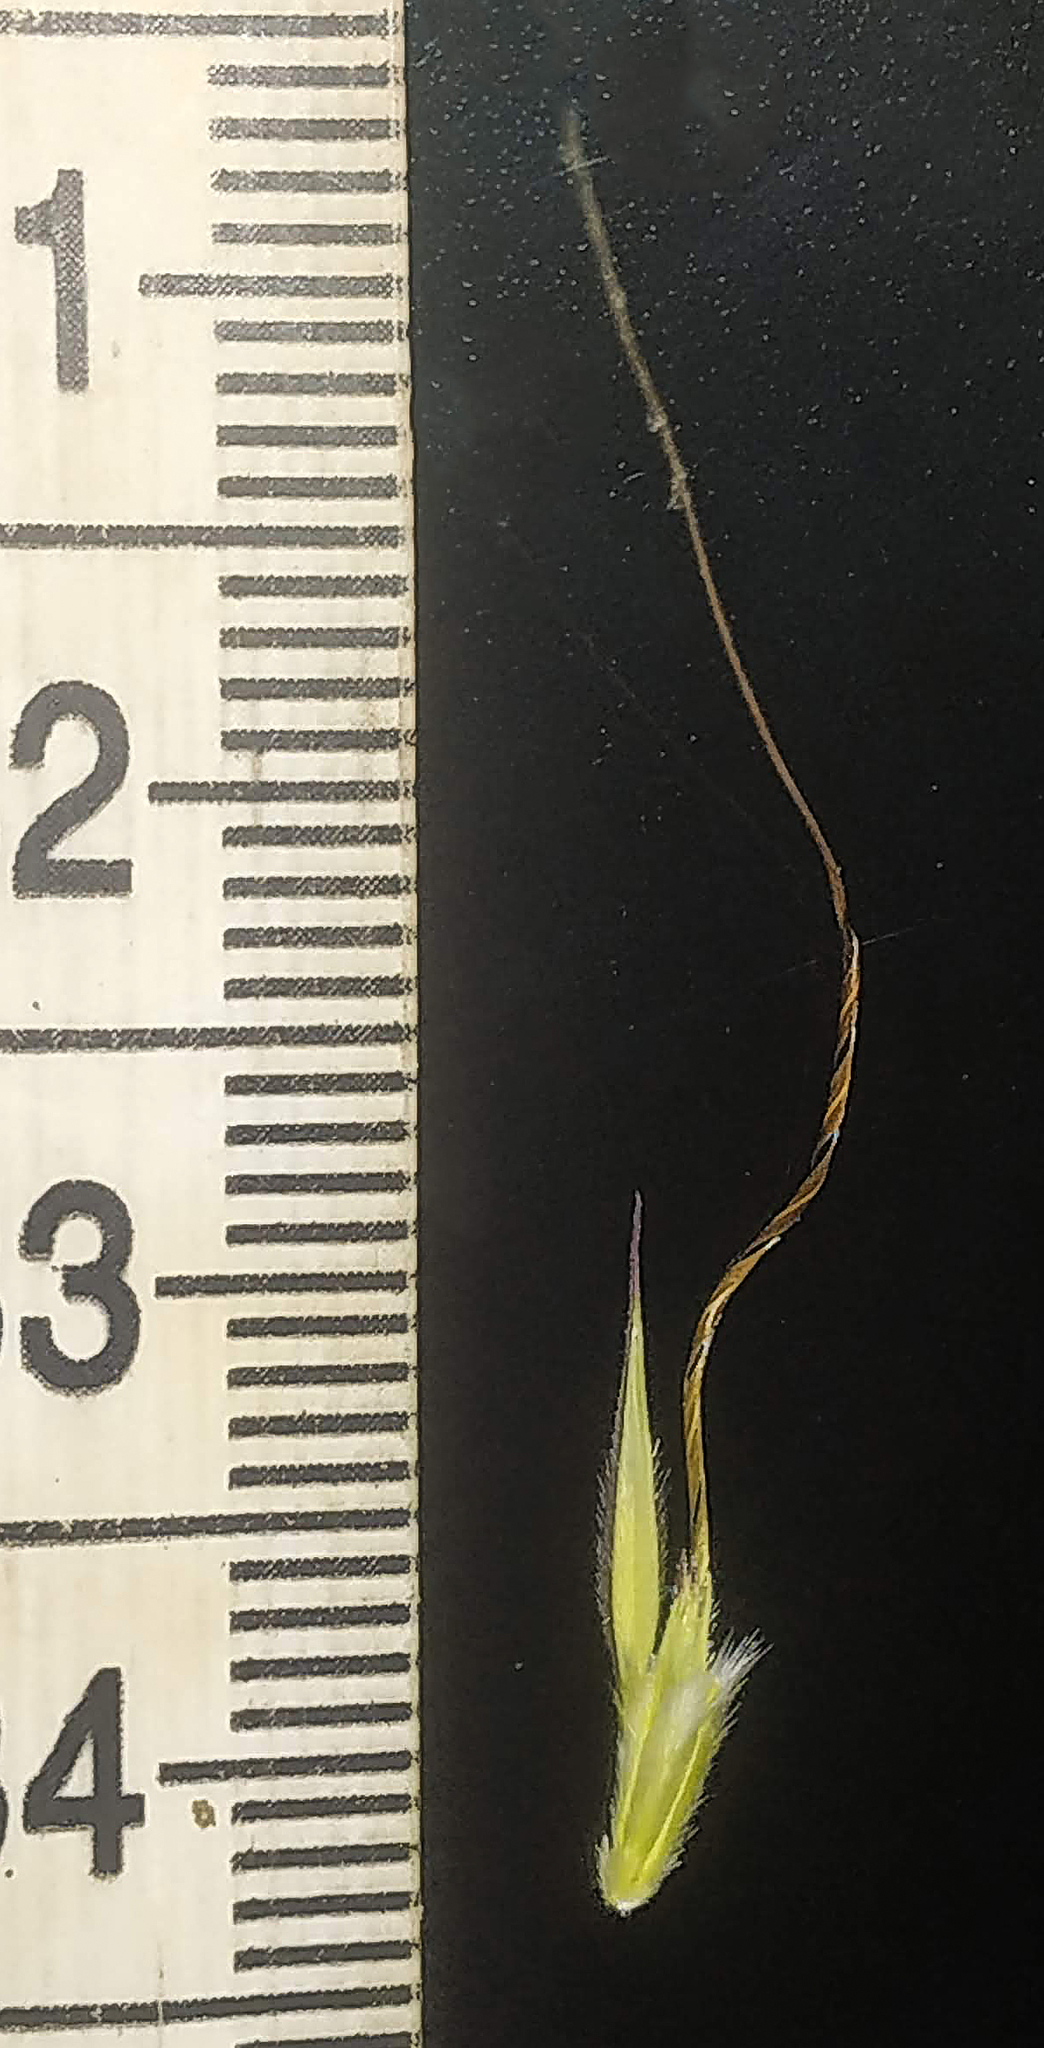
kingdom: Plantae
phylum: Tracheophyta
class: Liliopsida
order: Poales
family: Poaceae
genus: Triplopogon
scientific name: Triplopogon ramosissimus
